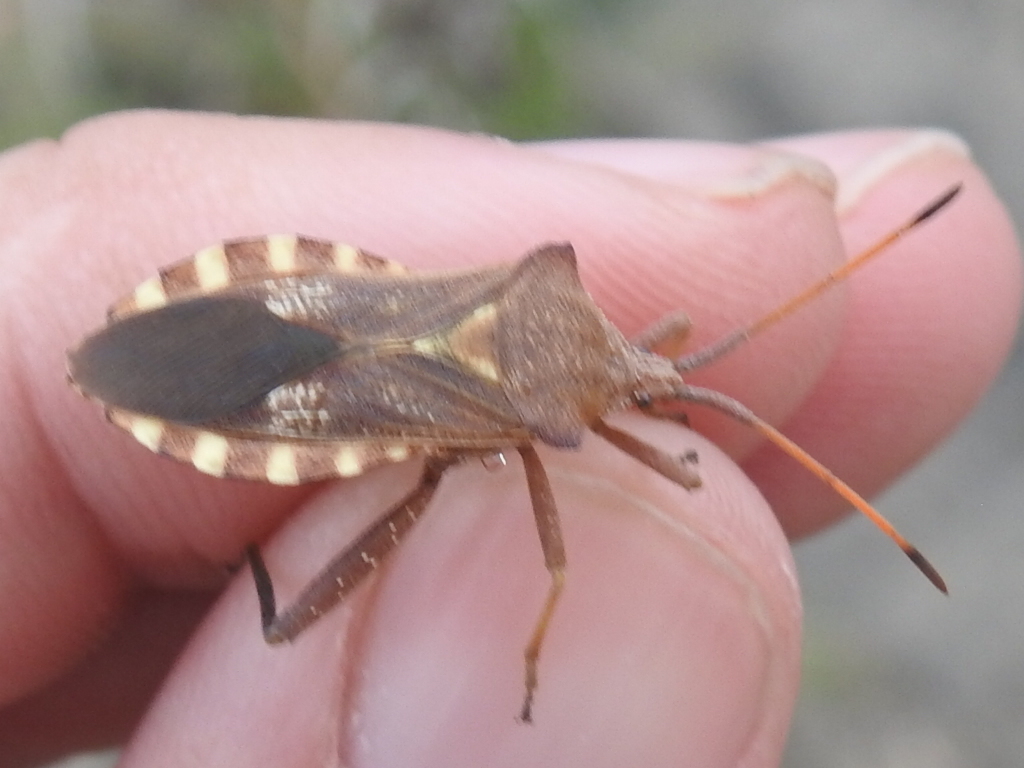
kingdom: Animalia
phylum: Arthropoda
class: Insecta
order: Hemiptera
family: Coreidae
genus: Mozena
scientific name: Mozena obtusa
